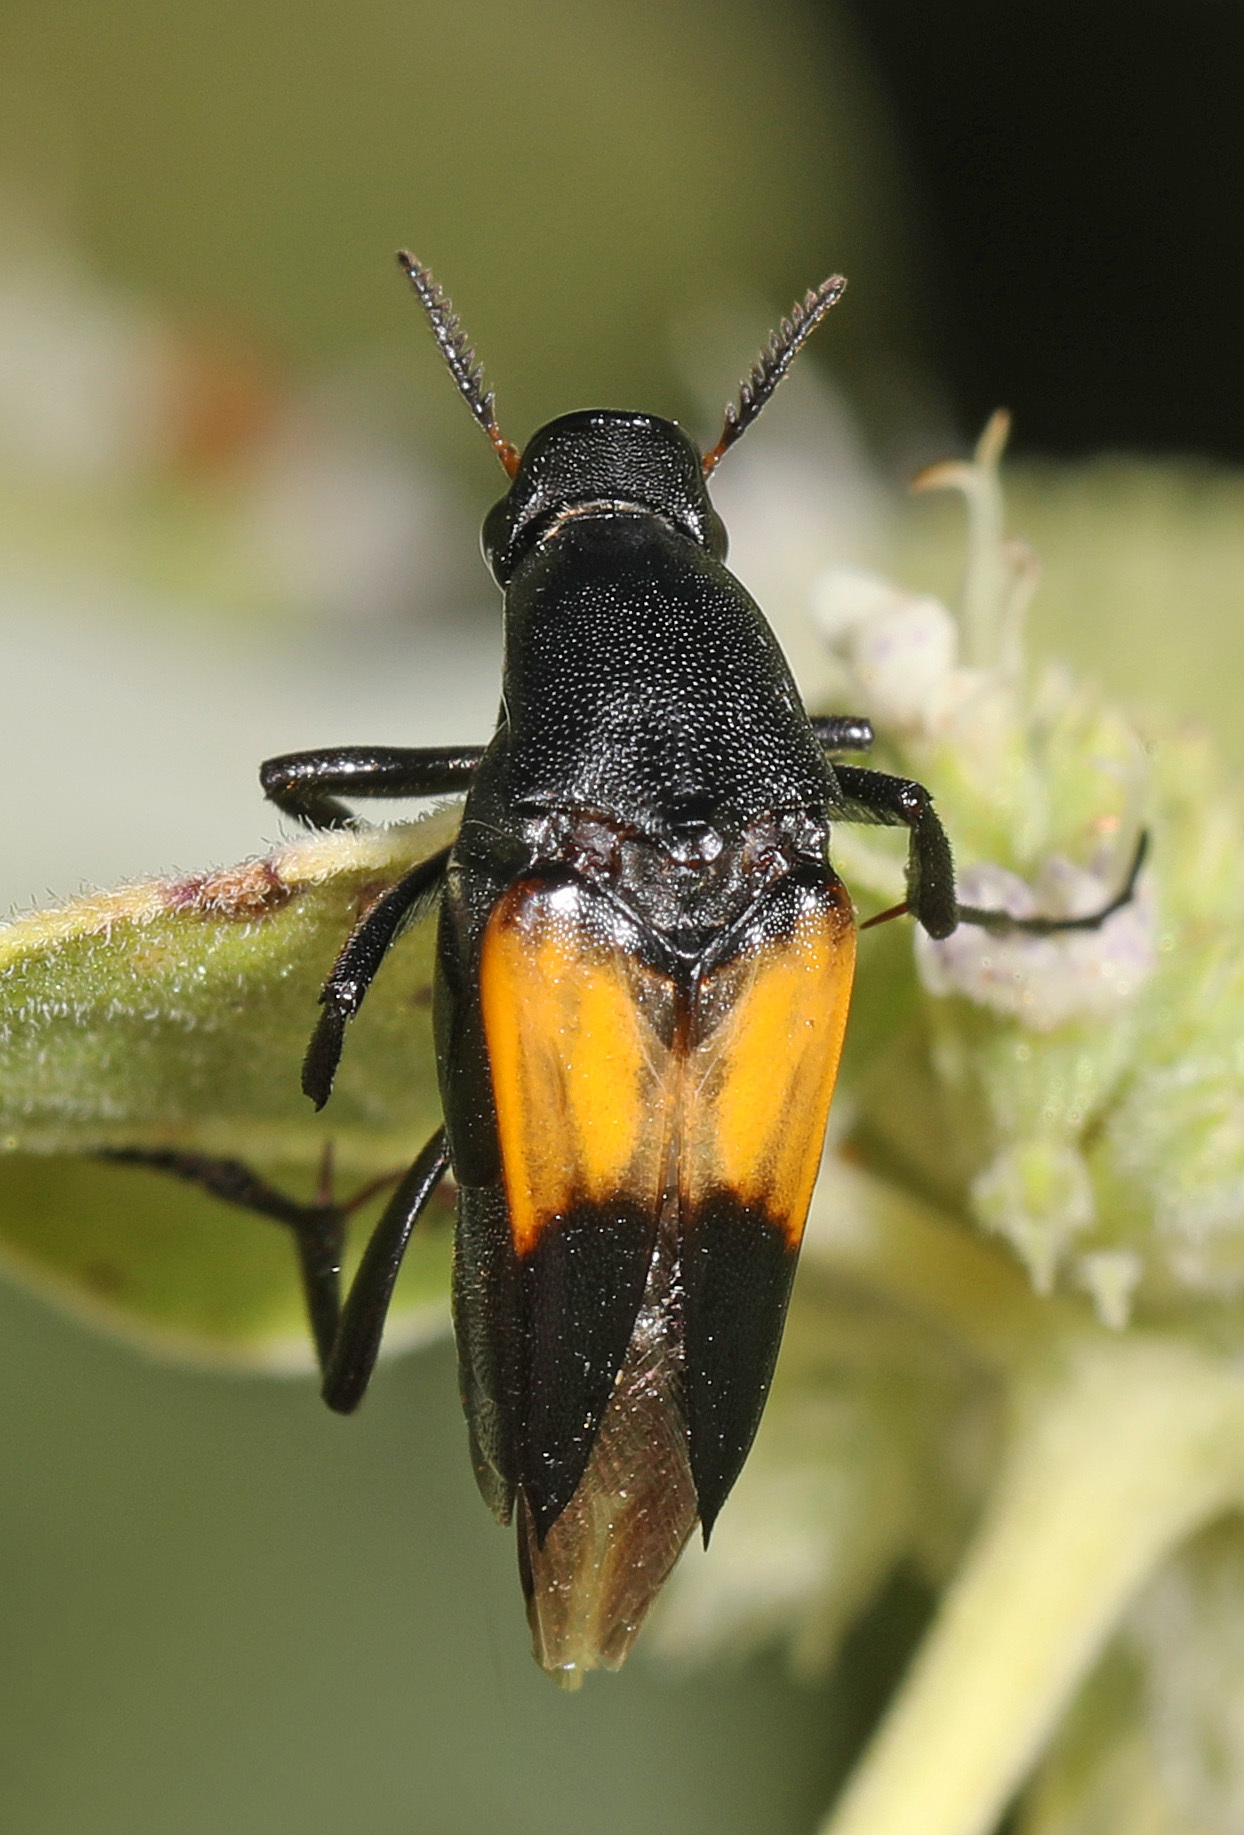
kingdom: Animalia
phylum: Arthropoda
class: Insecta
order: Coleoptera
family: Ripiphoridae
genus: Macrosiagon
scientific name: Macrosiagon dimidiata
